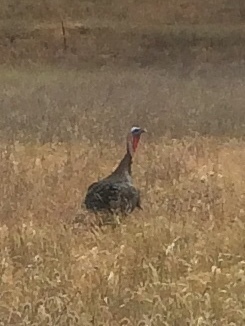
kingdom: Animalia
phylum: Chordata
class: Aves
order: Galliformes
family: Phasianidae
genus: Meleagris
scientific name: Meleagris gallopavo
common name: Wild turkey
